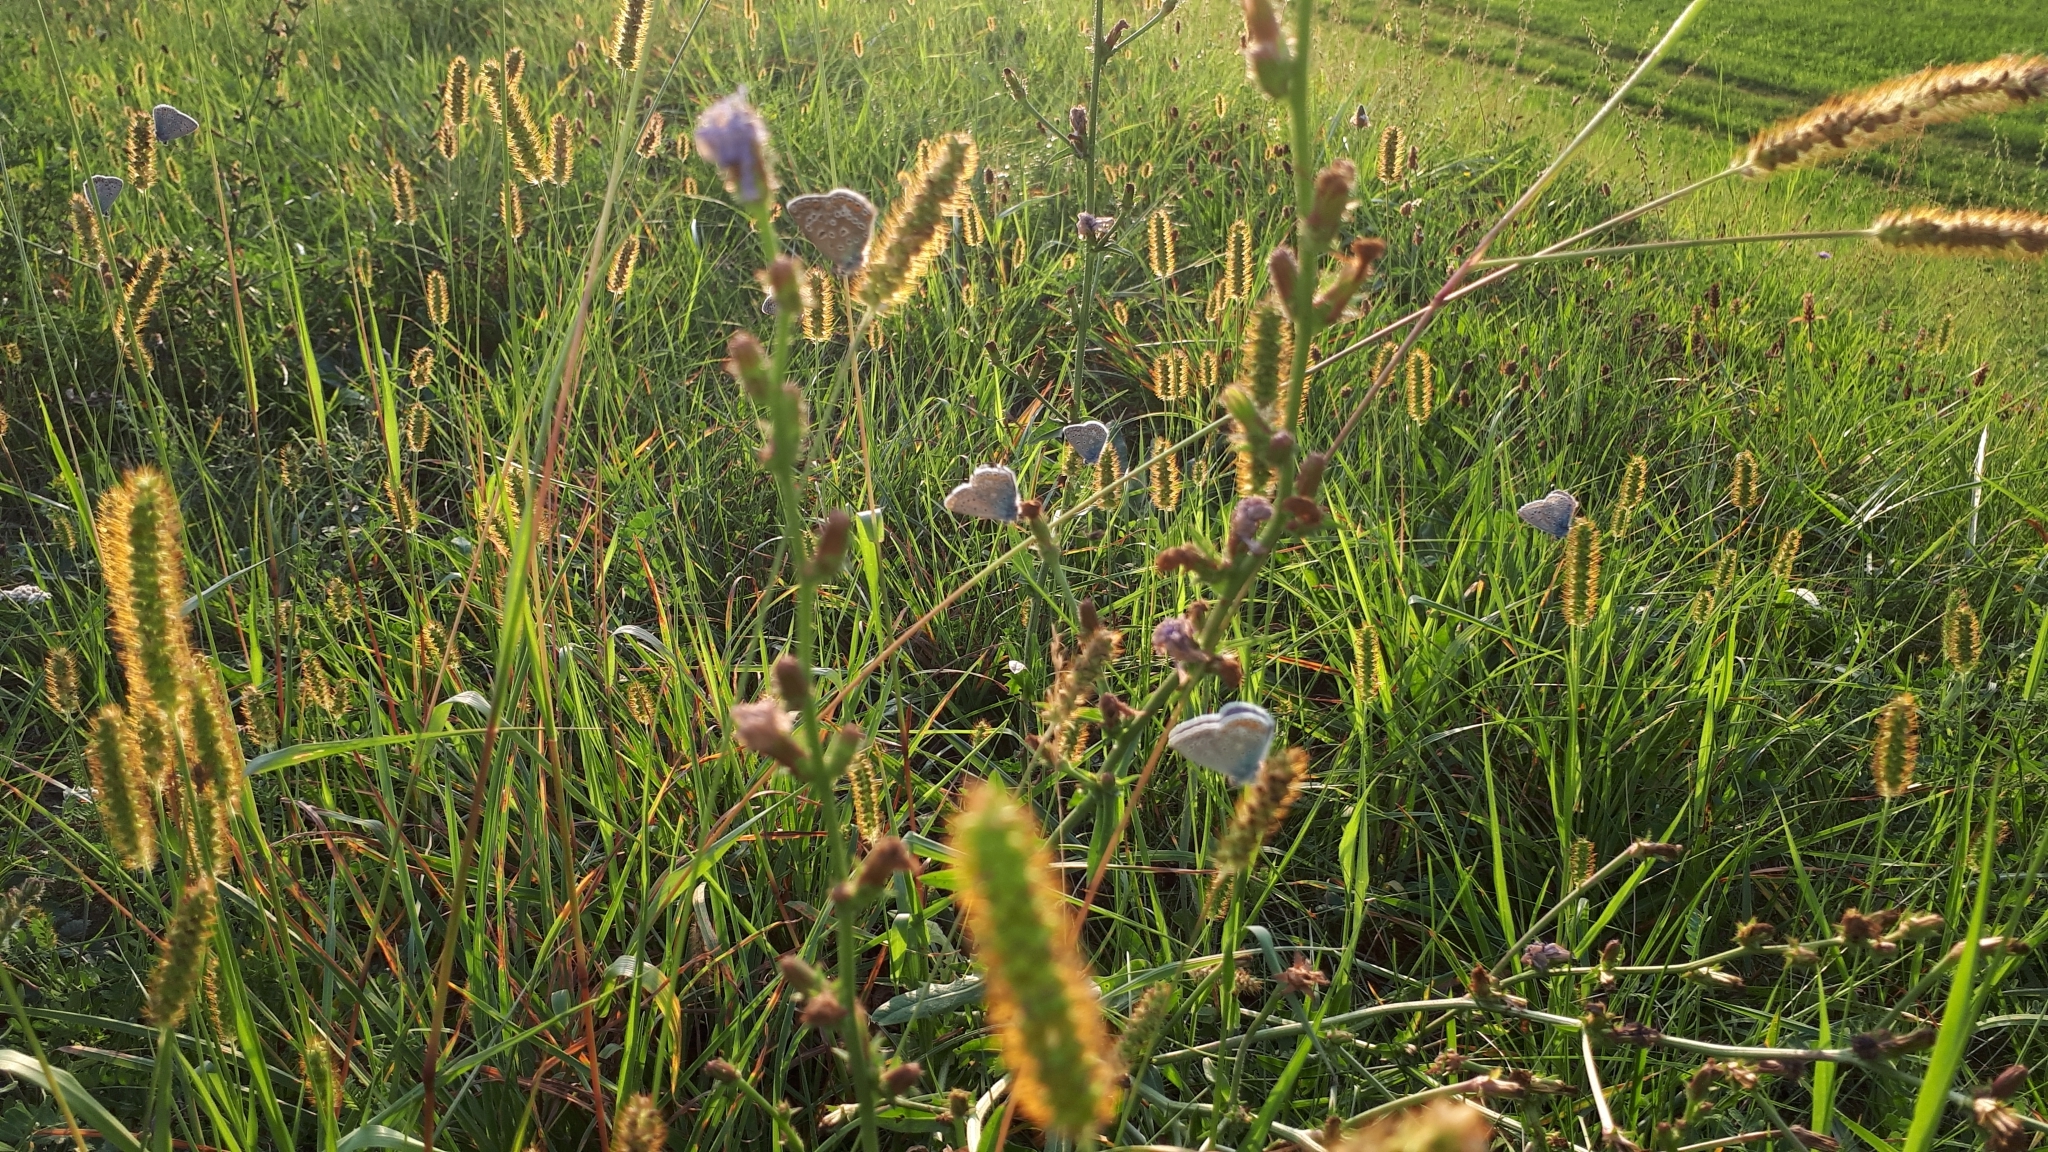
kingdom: Animalia
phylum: Arthropoda
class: Insecta
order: Lepidoptera
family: Lycaenidae
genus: Polyommatus
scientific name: Polyommatus icarus
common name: Common blue
